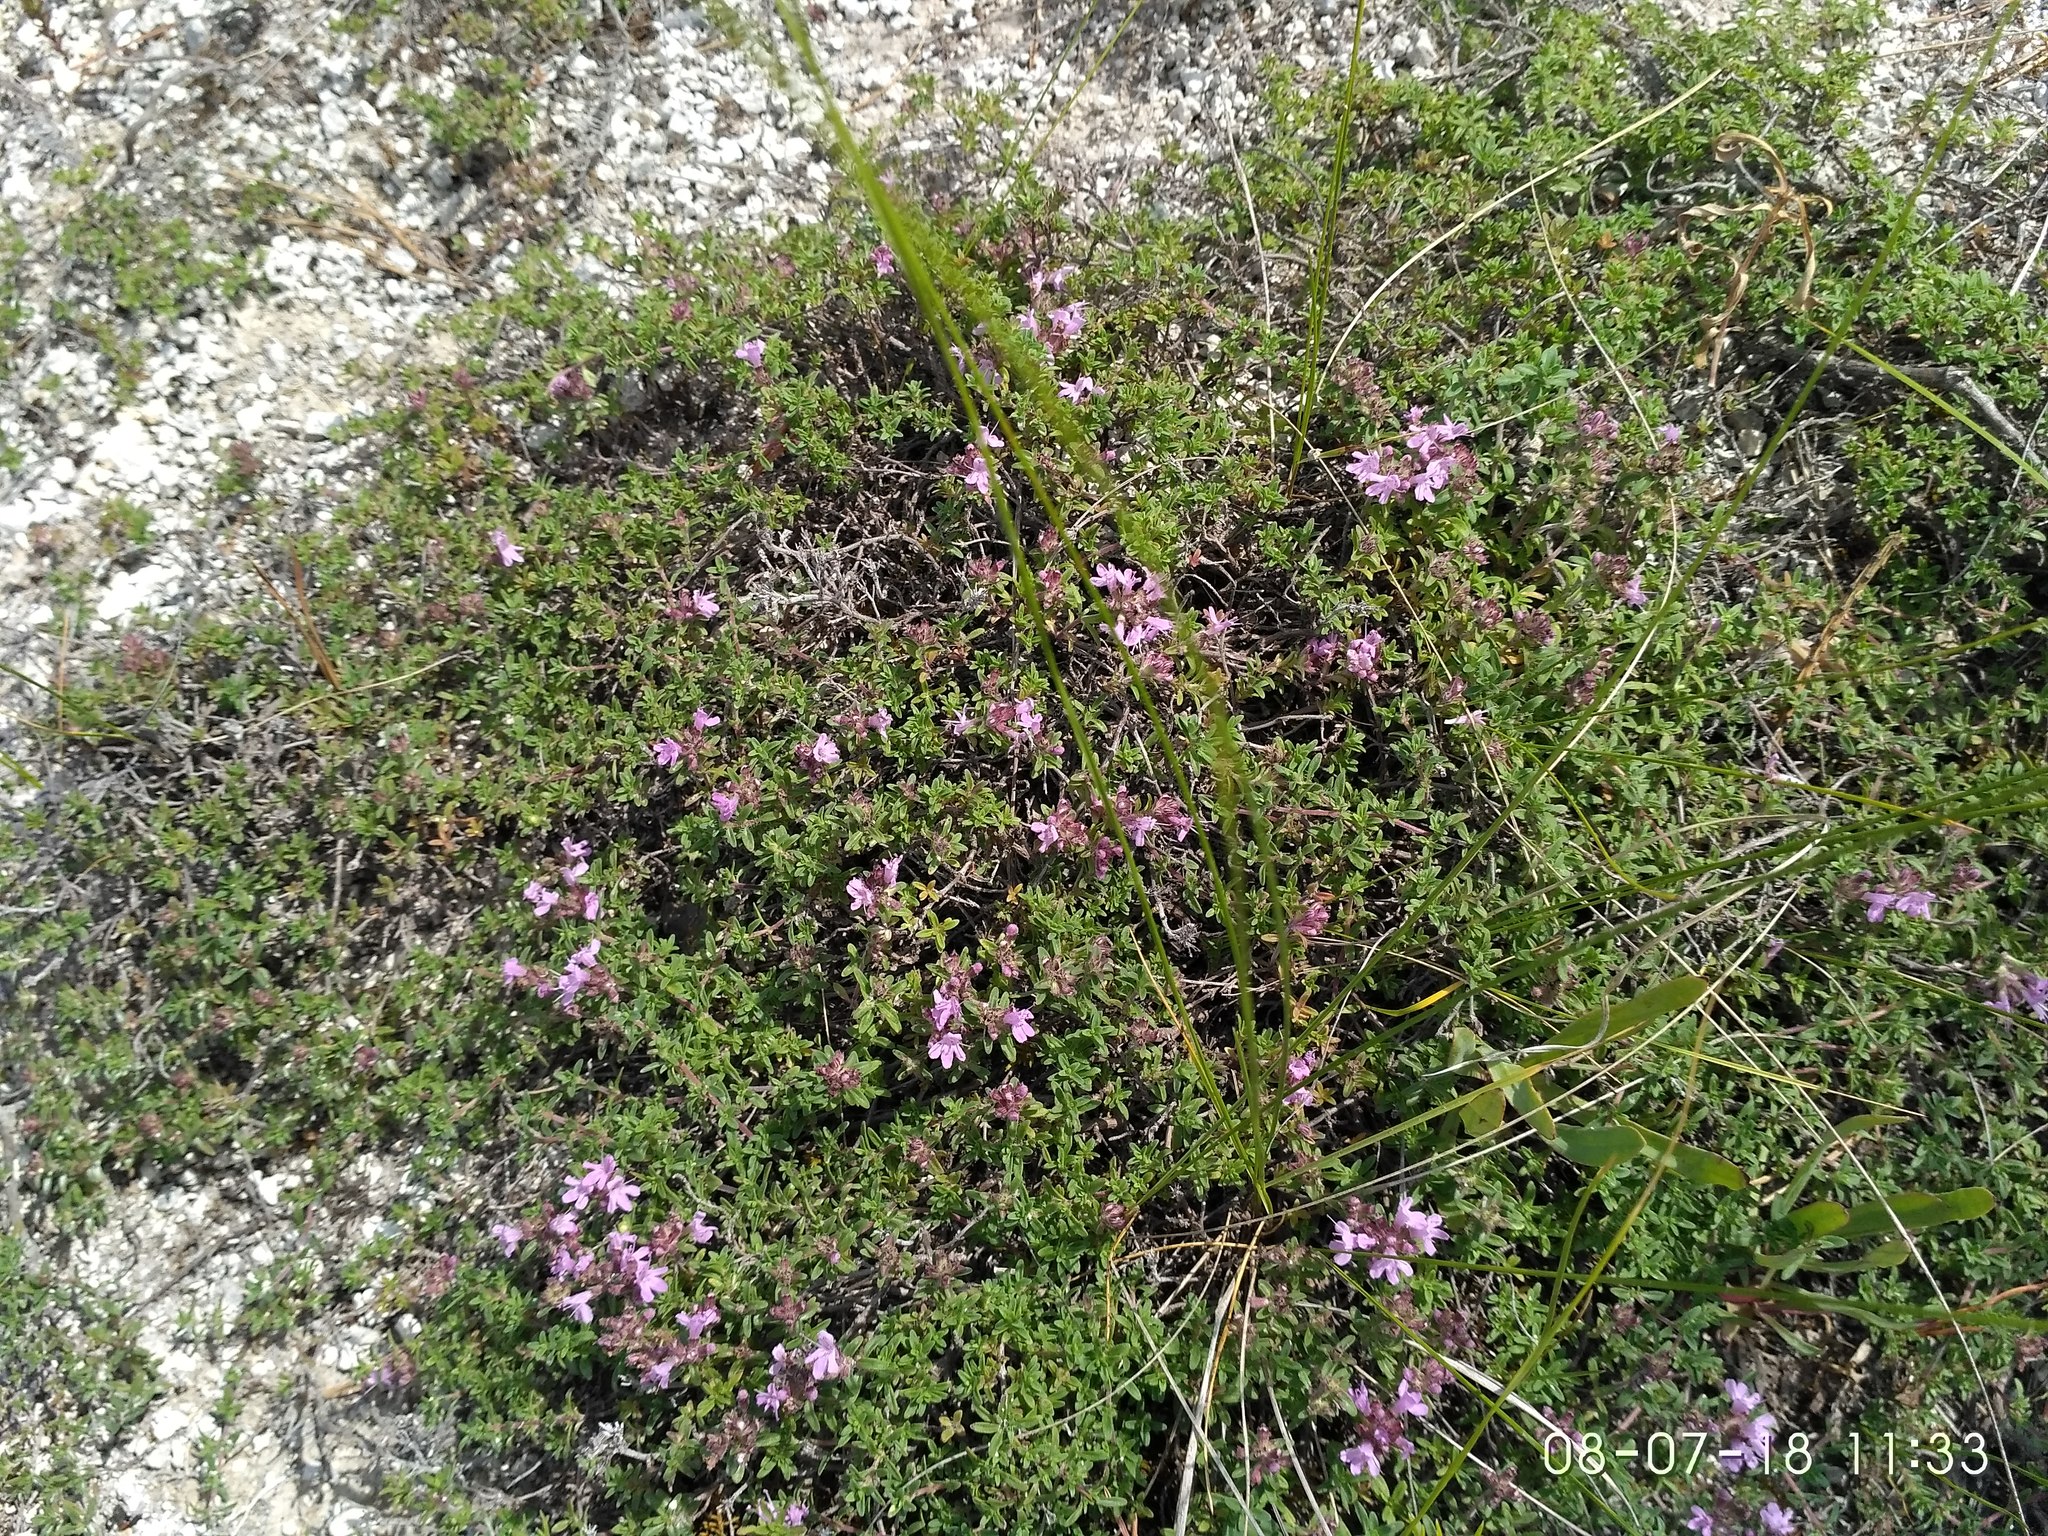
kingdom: Plantae
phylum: Tracheophyta
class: Magnoliopsida
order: Lamiales
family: Lamiaceae
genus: Thymus
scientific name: Thymus dubjanskyi
